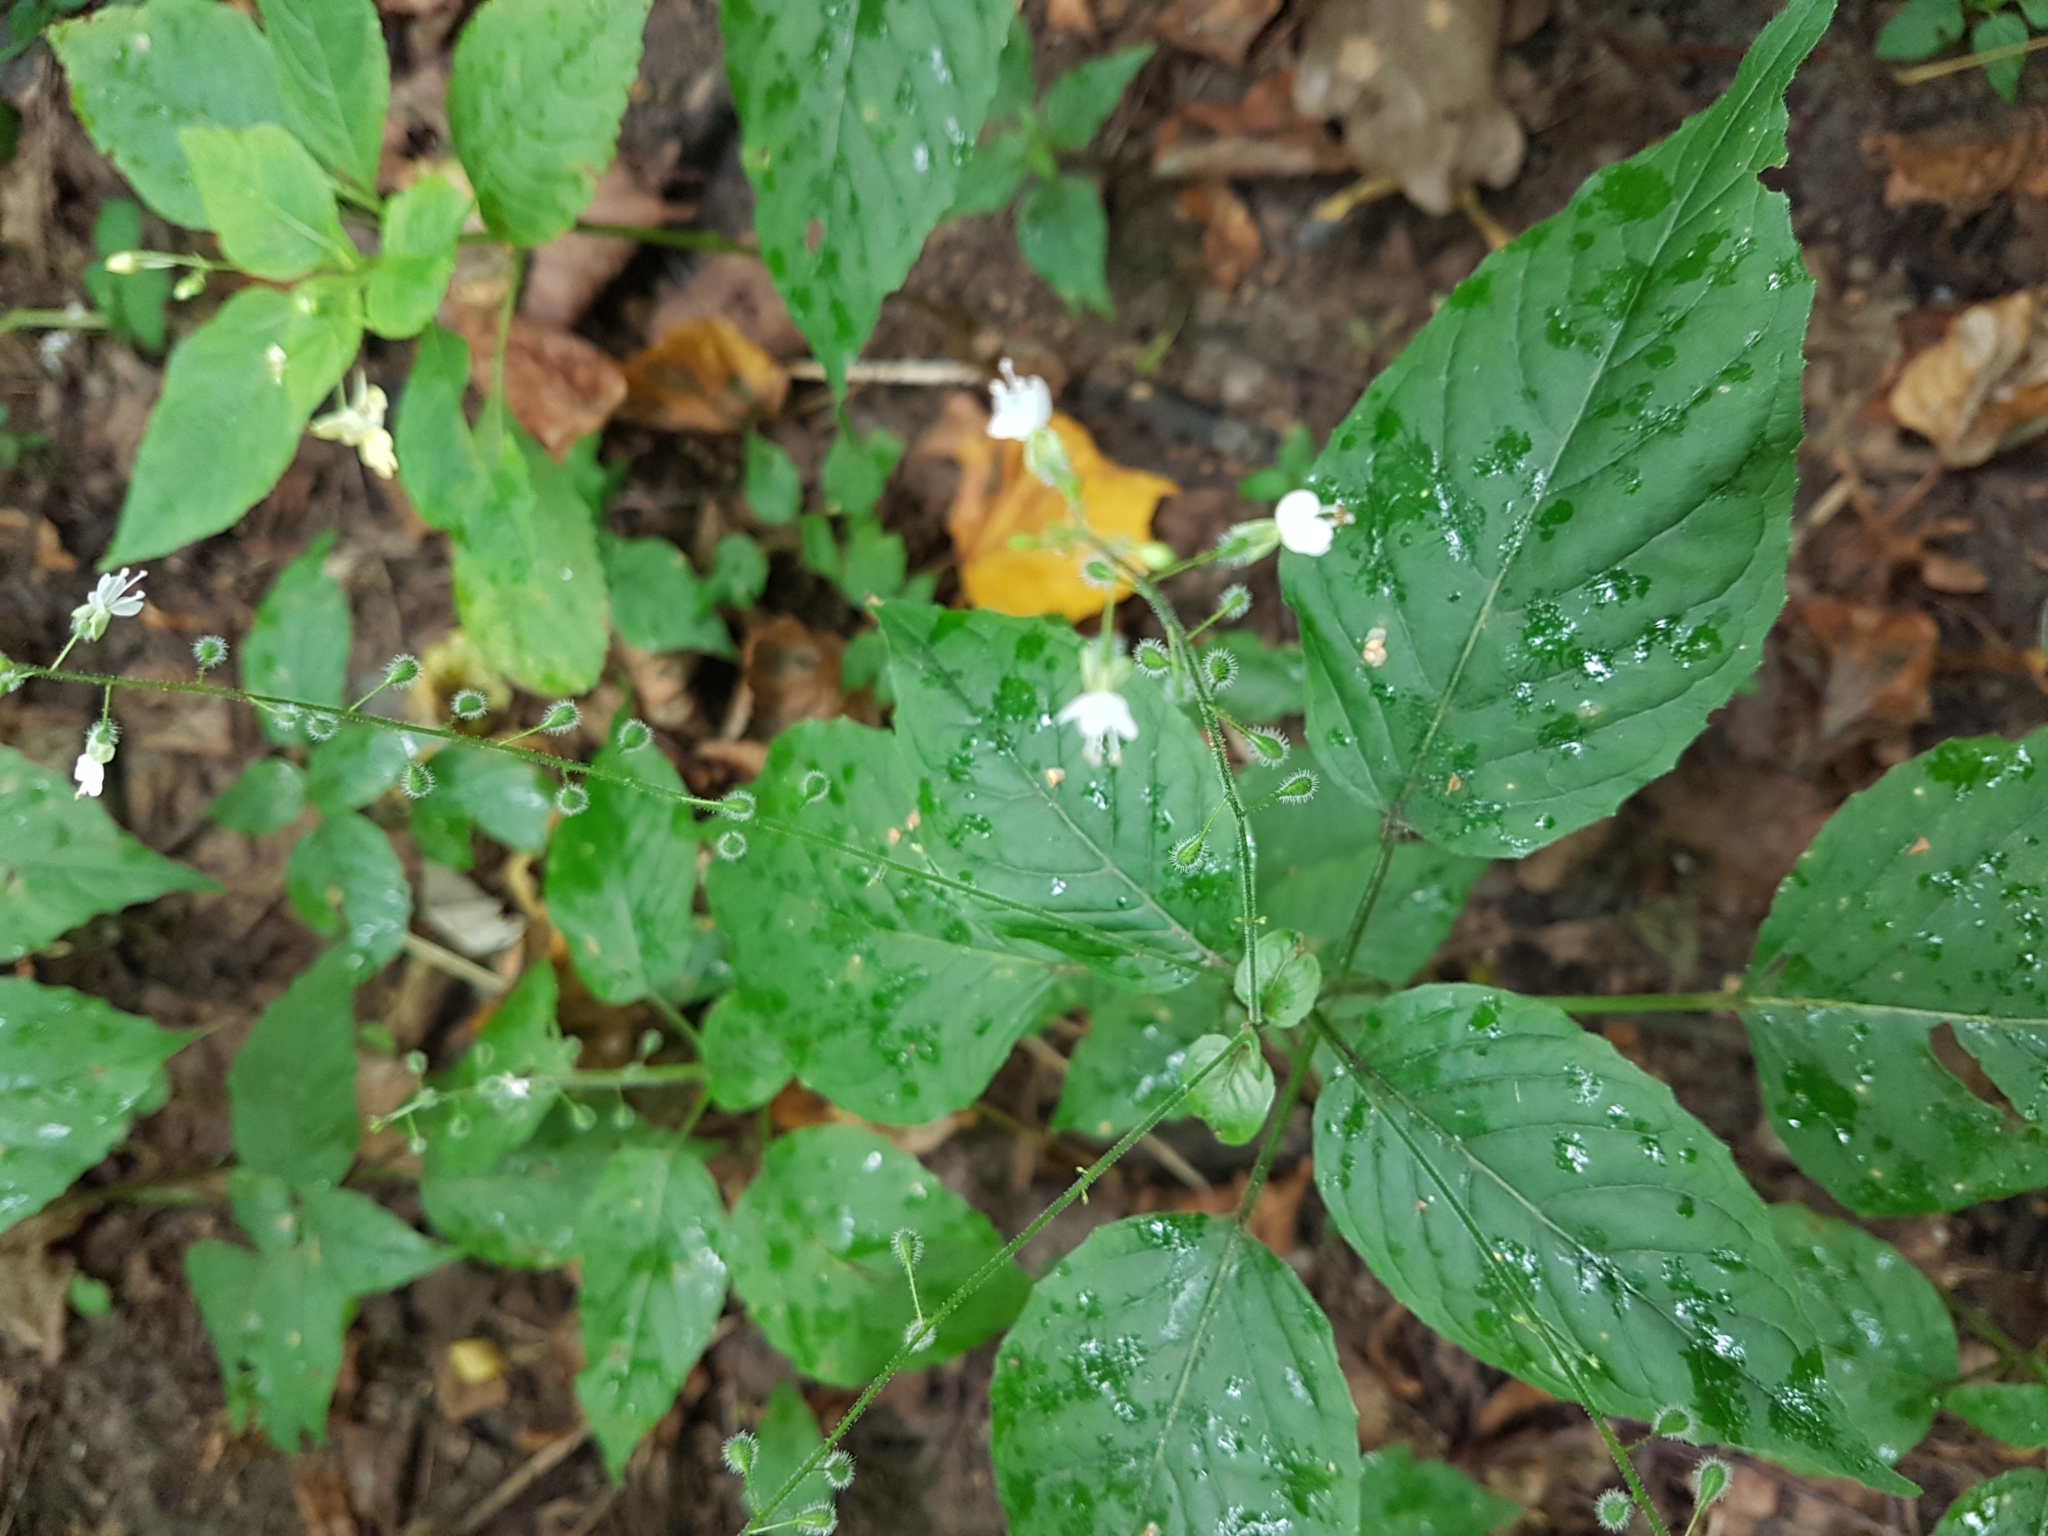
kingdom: Plantae
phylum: Tracheophyta
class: Magnoliopsida
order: Myrtales
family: Onagraceae
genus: Circaea
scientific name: Circaea lutetiana
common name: Enchanter's-nightshade
